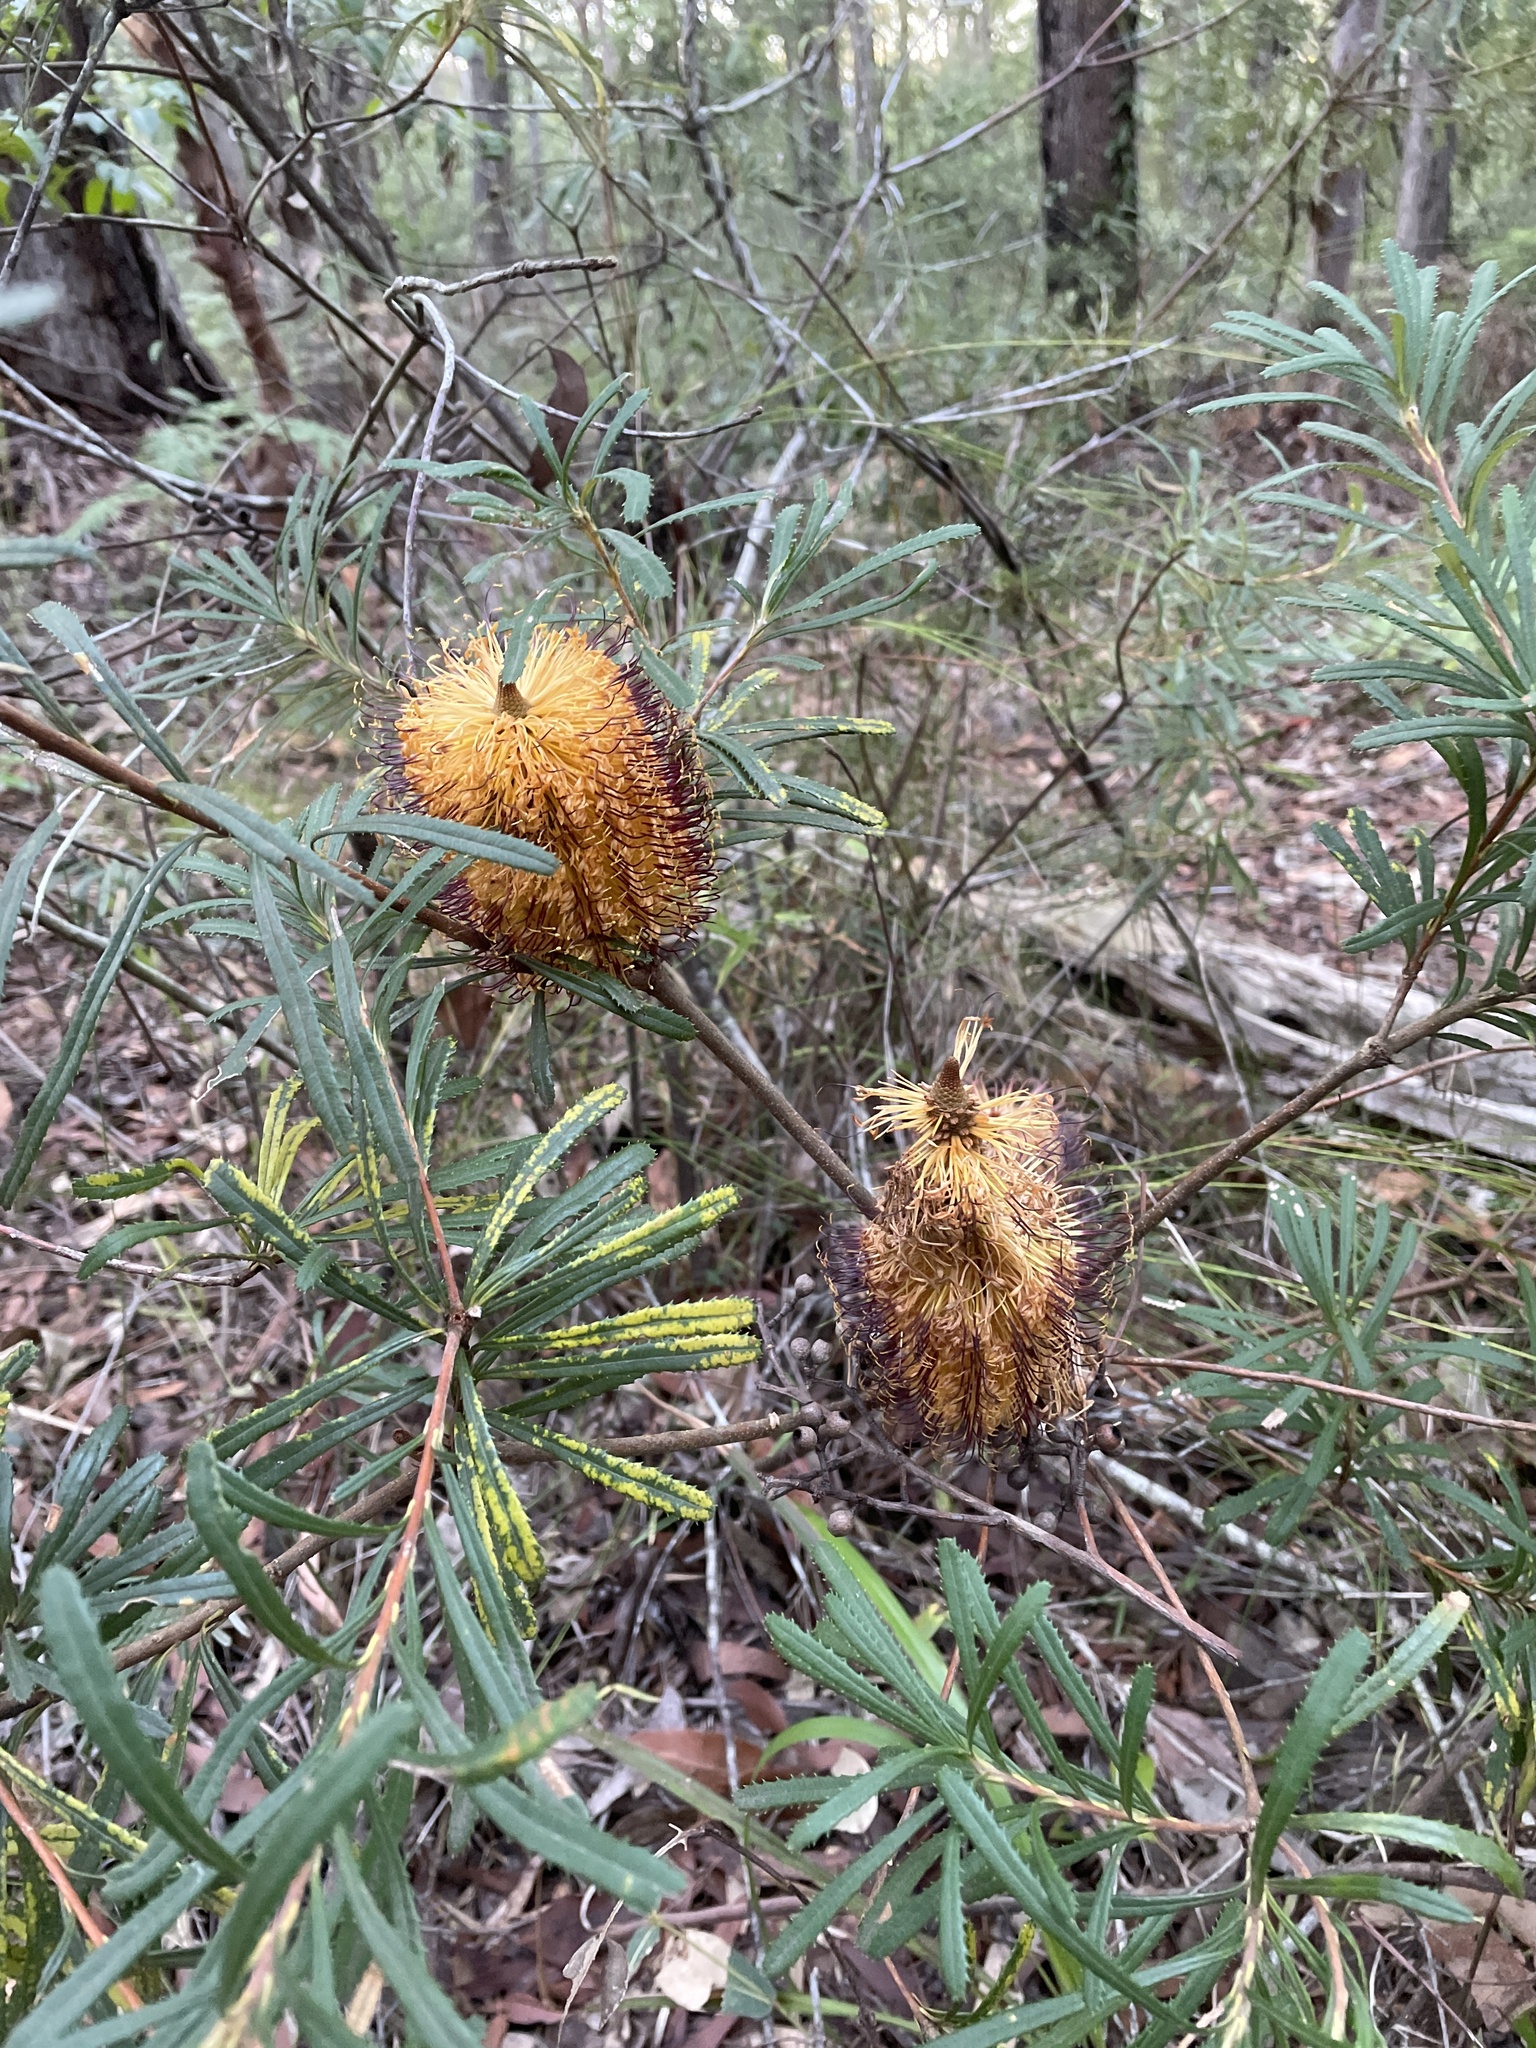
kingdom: Plantae
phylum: Tracheophyta
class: Magnoliopsida
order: Proteales
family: Proteaceae
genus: Banksia
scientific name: Banksia spinulosa
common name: Hairpin banksia
